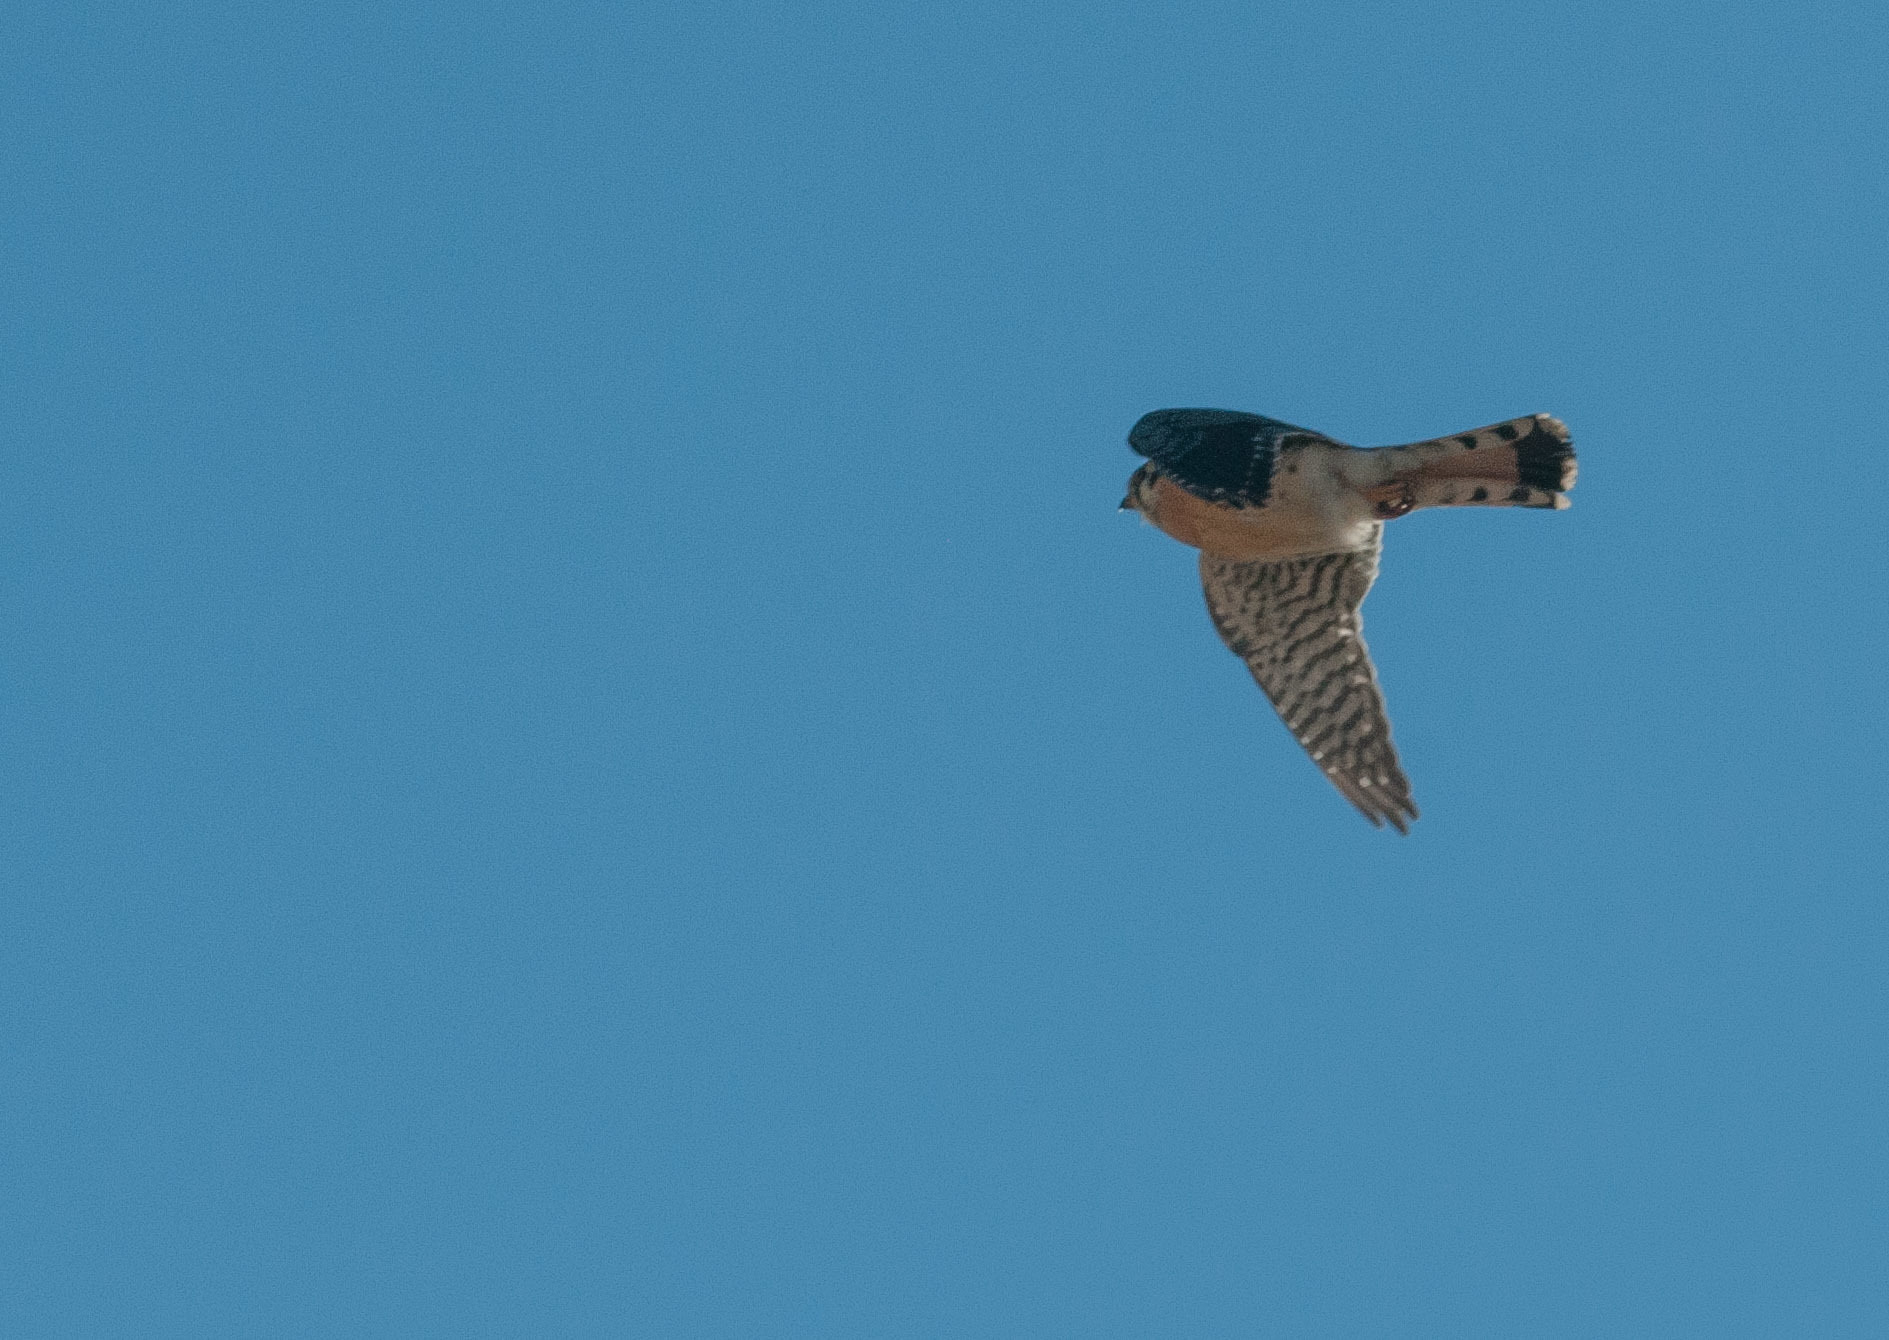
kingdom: Animalia
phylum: Chordata
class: Aves
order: Falconiformes
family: Falconidae
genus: Falco
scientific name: Falco sparverius
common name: American kestrel
